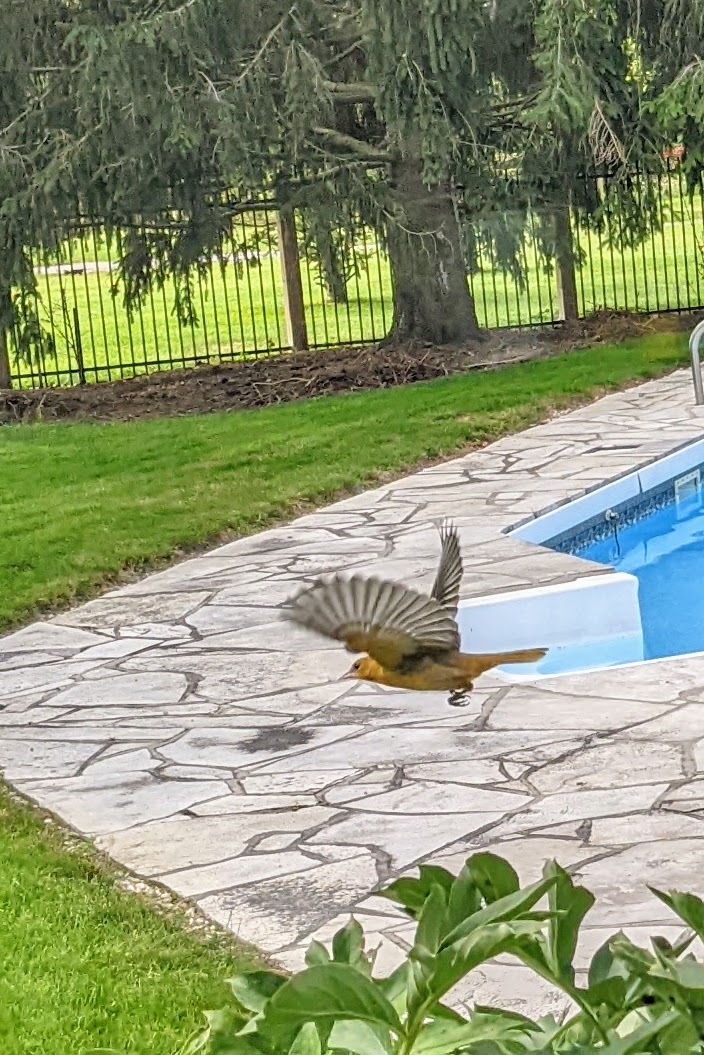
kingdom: Animalia
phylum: Chordata
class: Aves
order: Passeriformes
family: Icteridae
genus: Icterus
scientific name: Icterus galbula
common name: Baltimore oriole
